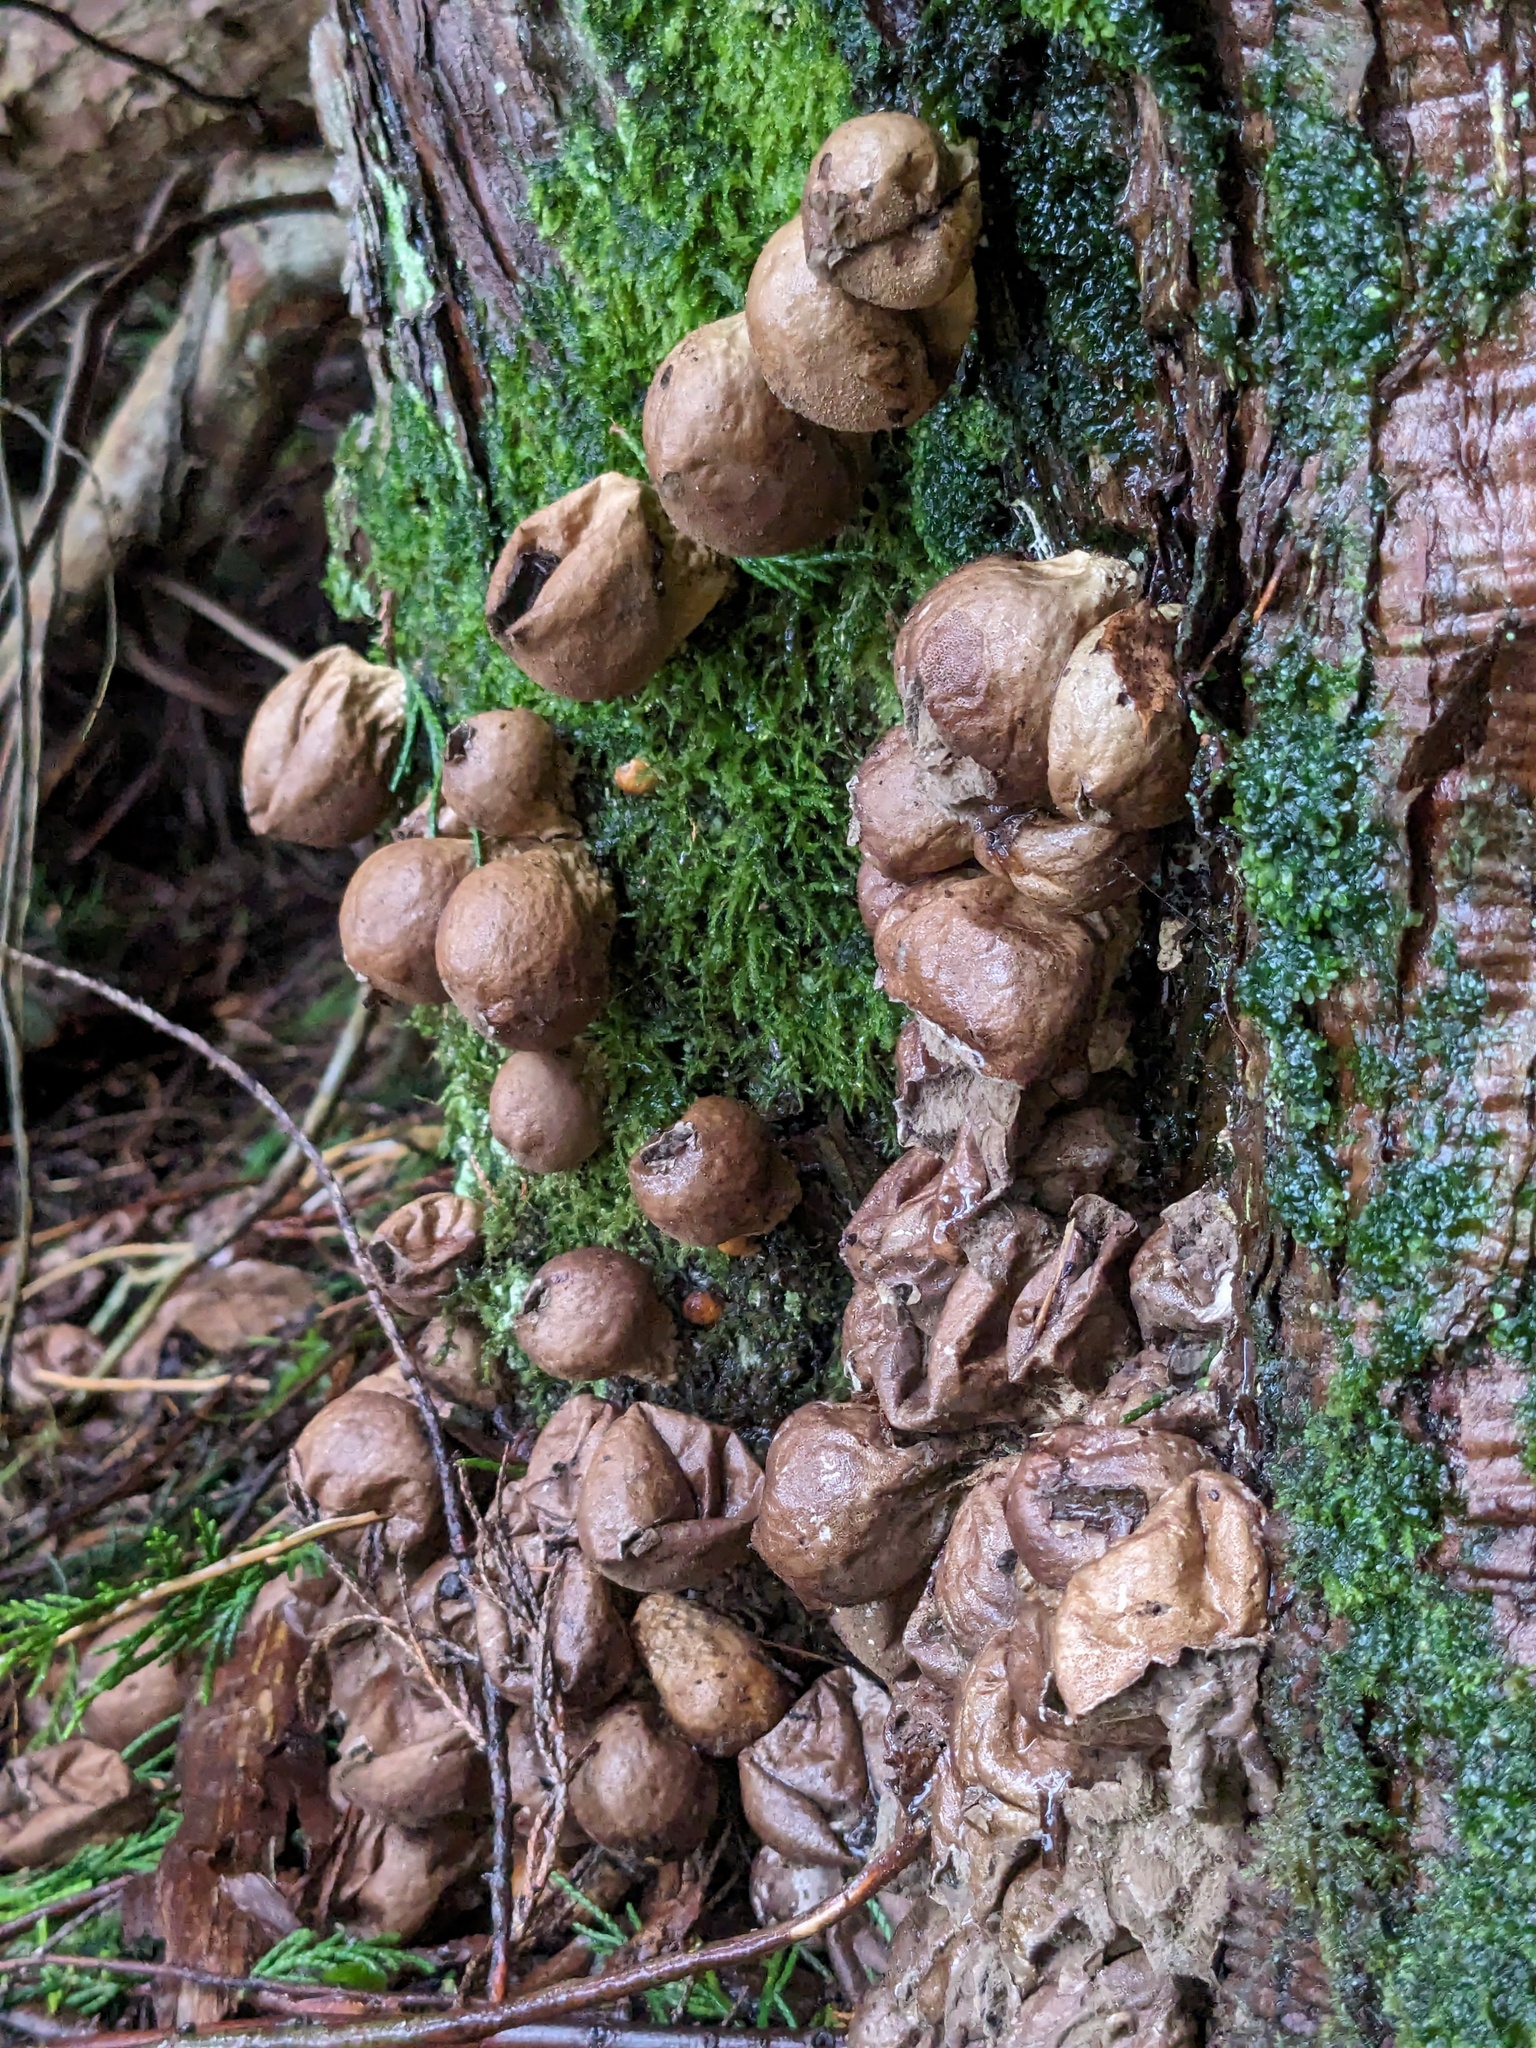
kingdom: Fungi
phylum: Basidiomycota
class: Agaricomycetes
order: Agaricales
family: Lycoperdaceae
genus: Apioperdon
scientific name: Apioperdon pyriforme
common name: Pear-shaped puffball
